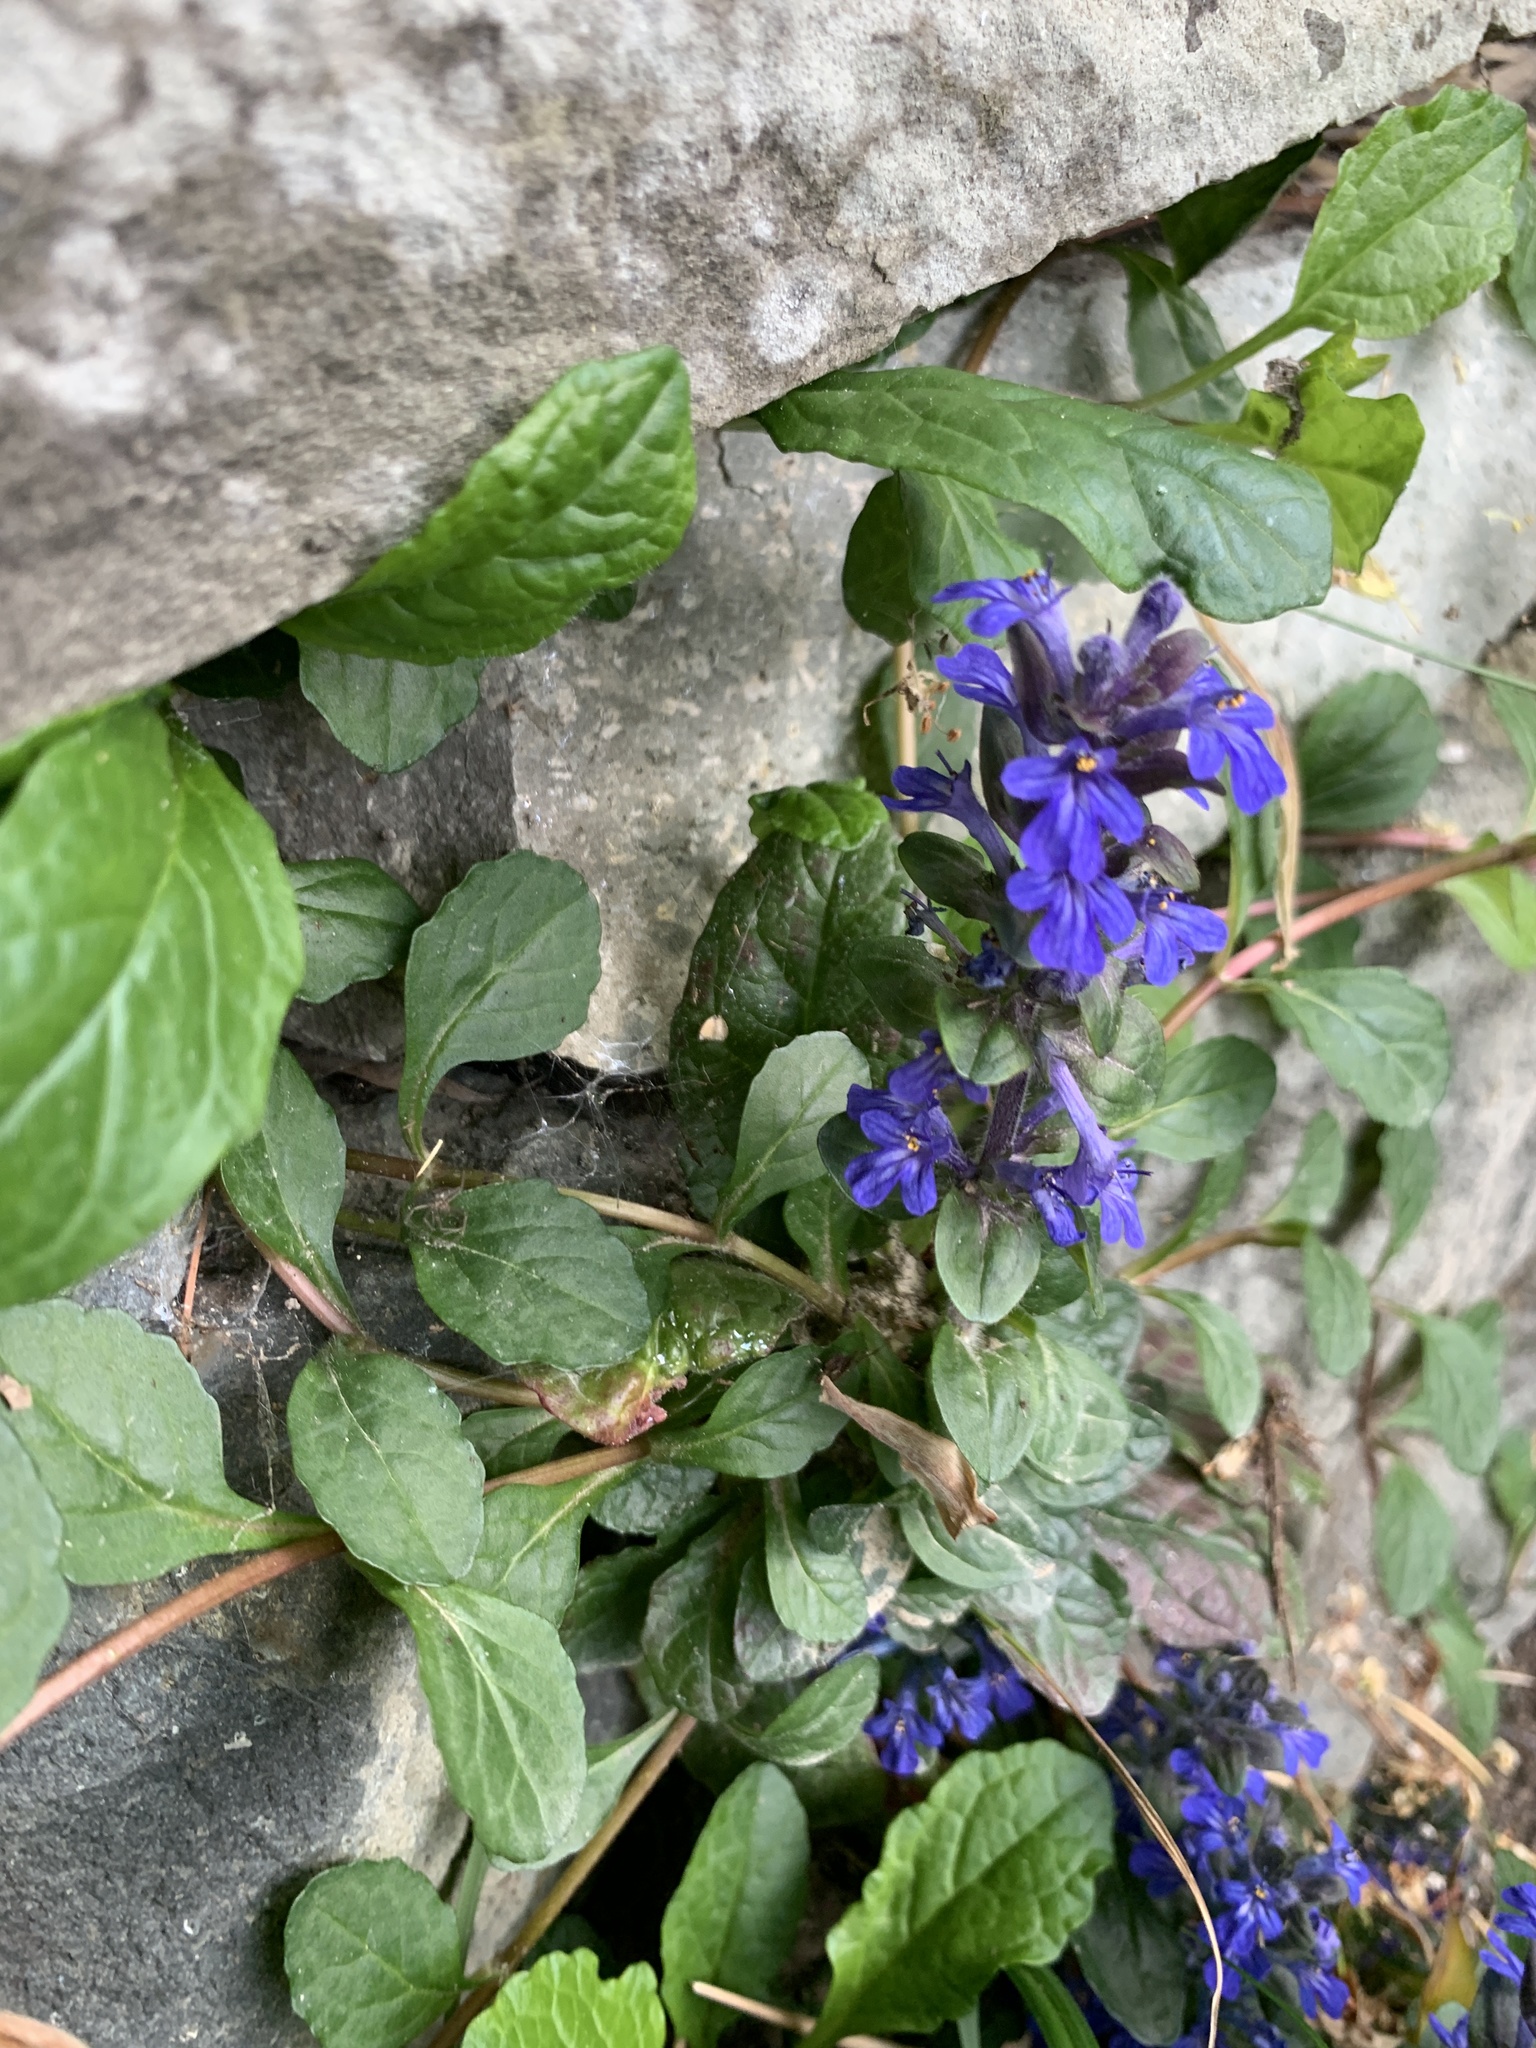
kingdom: Plantae
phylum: Tracheophyta
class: Magnoliopsida
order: Lamiales
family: Lamiaceae
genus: Ajuga
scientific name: Ajuga reptans
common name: Bugle
